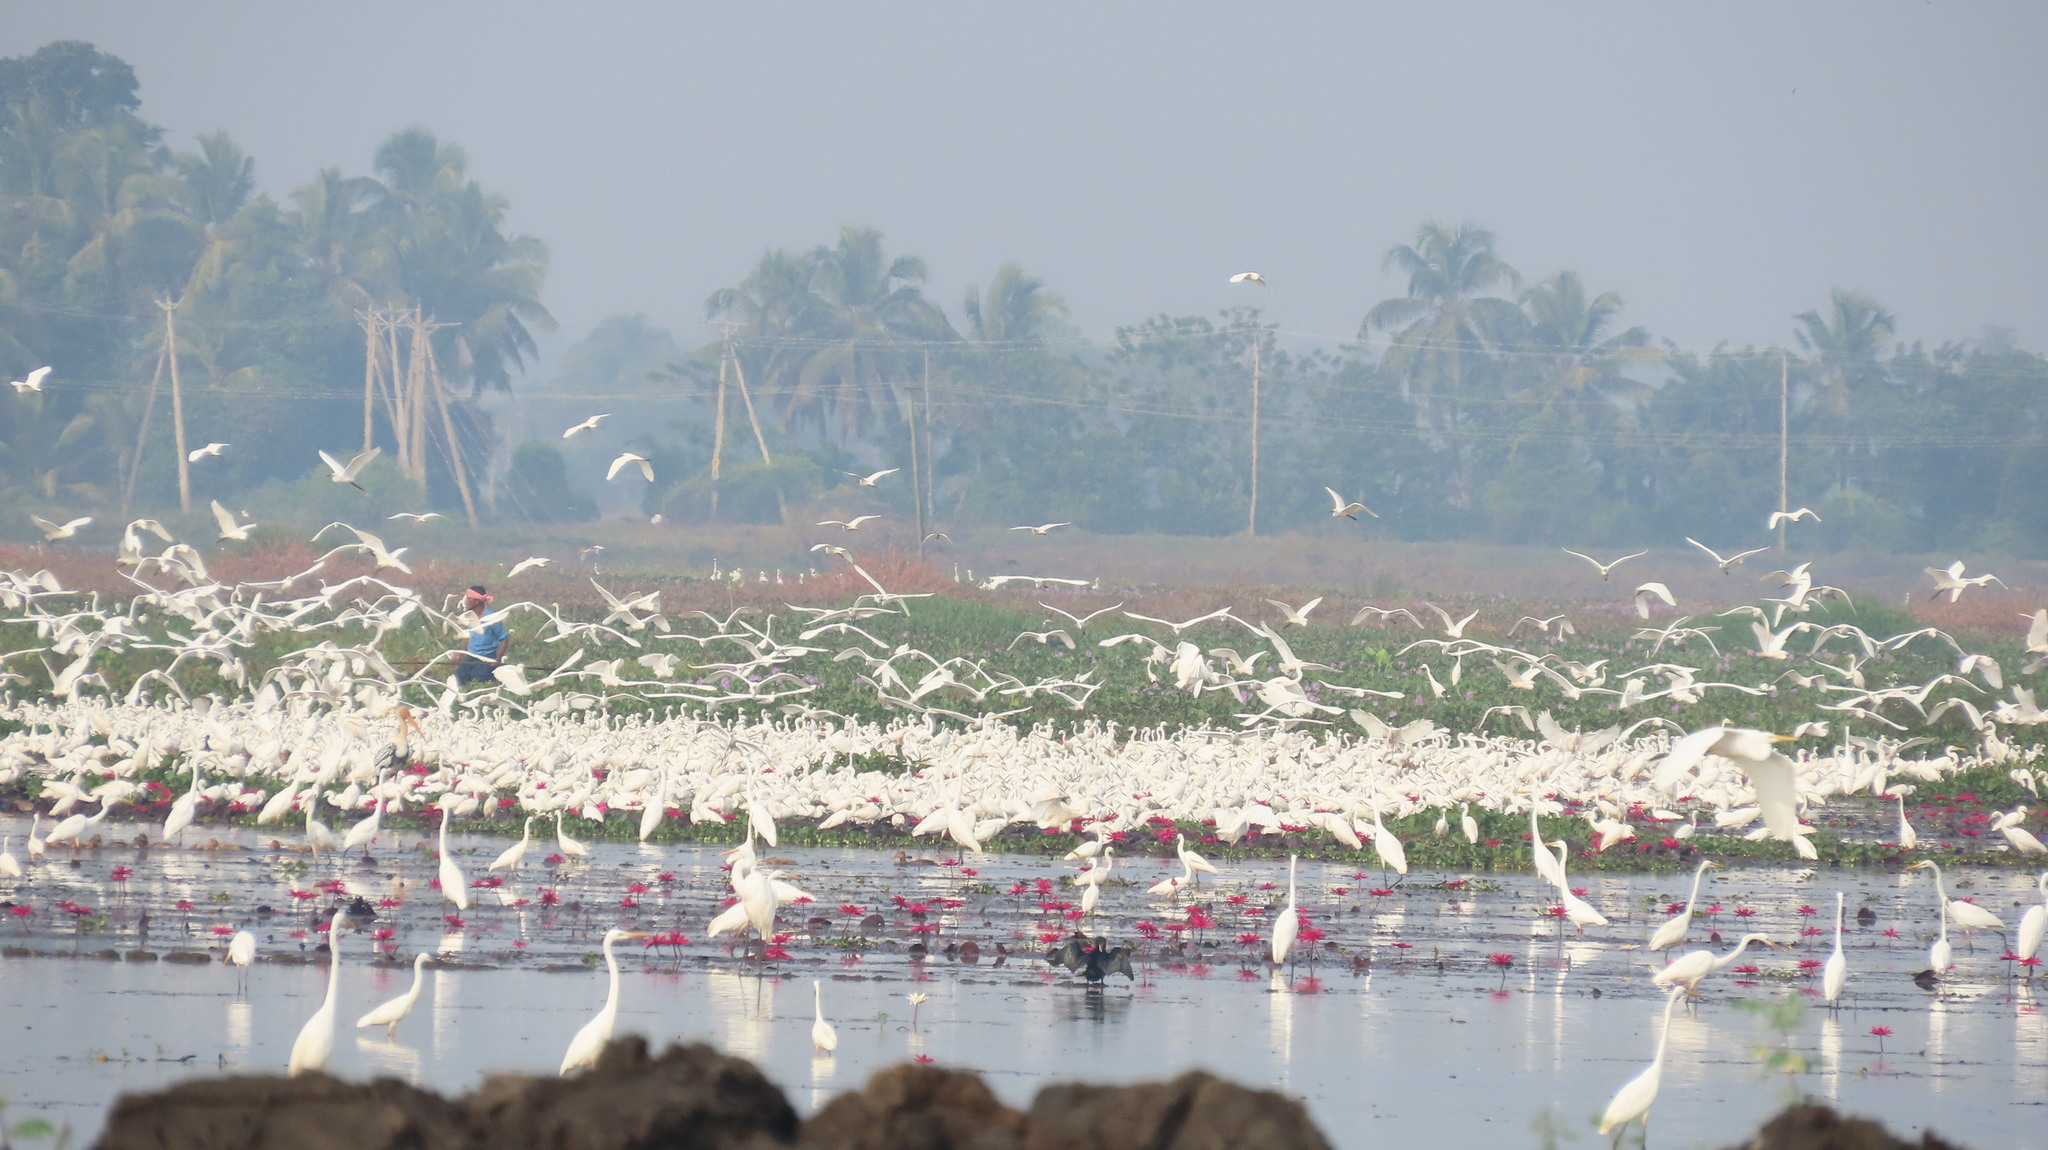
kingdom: Animalia
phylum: Chordata
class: Aves
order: Pelecaniformes
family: Ardeidae
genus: Ardea
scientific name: Ardea alba
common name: Great egret
